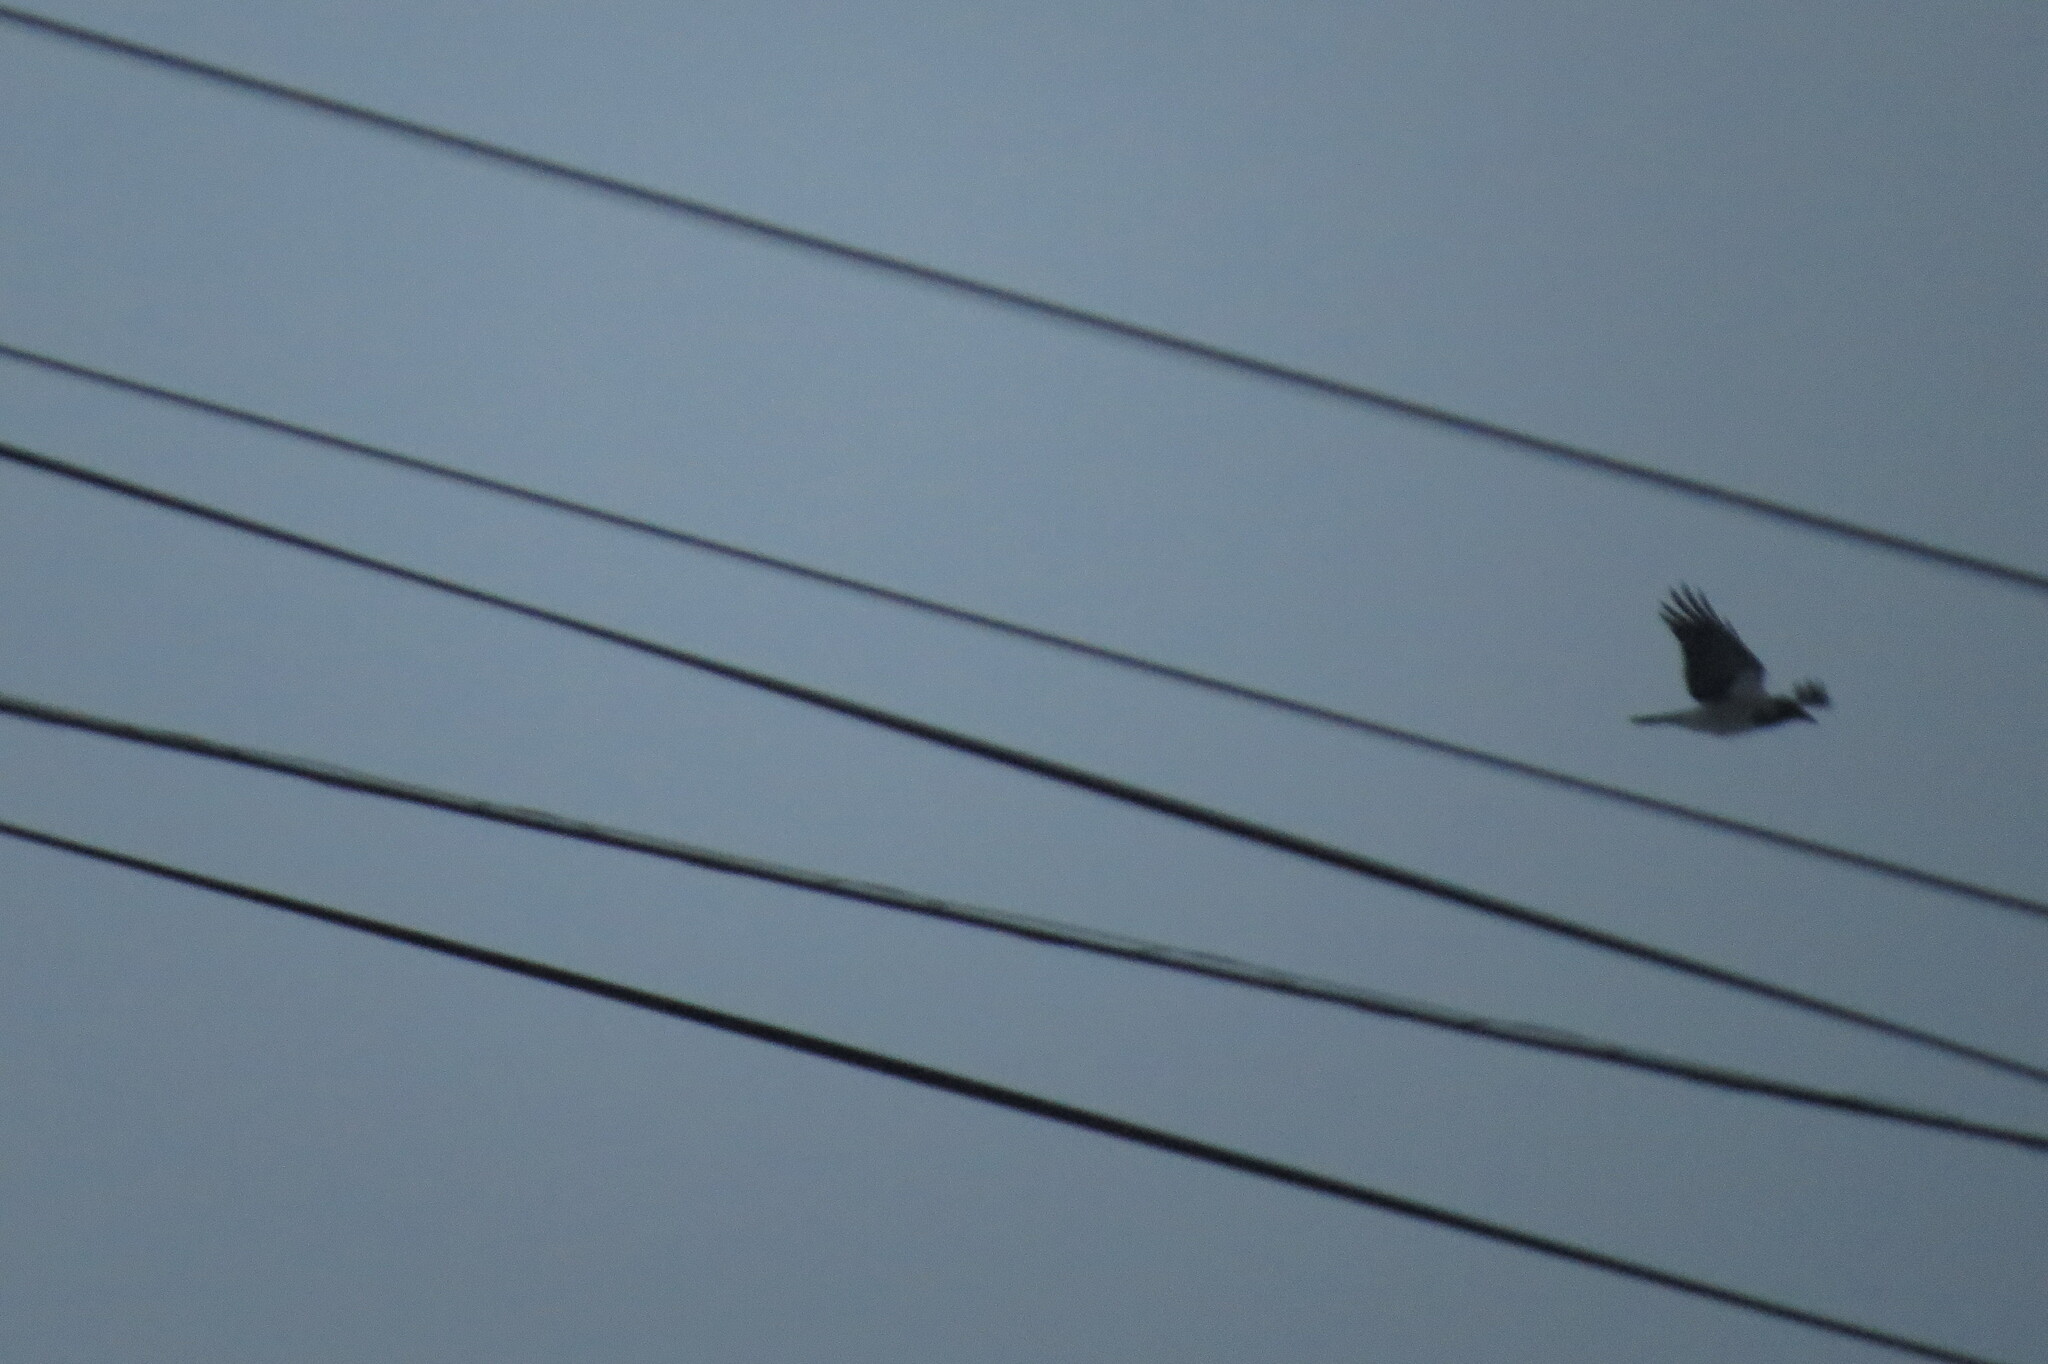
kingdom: Animalia
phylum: Chordata
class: Aves
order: Passeriformes
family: Corvidae
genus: Corvus
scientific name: Corvus cornix
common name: Hooded crow
